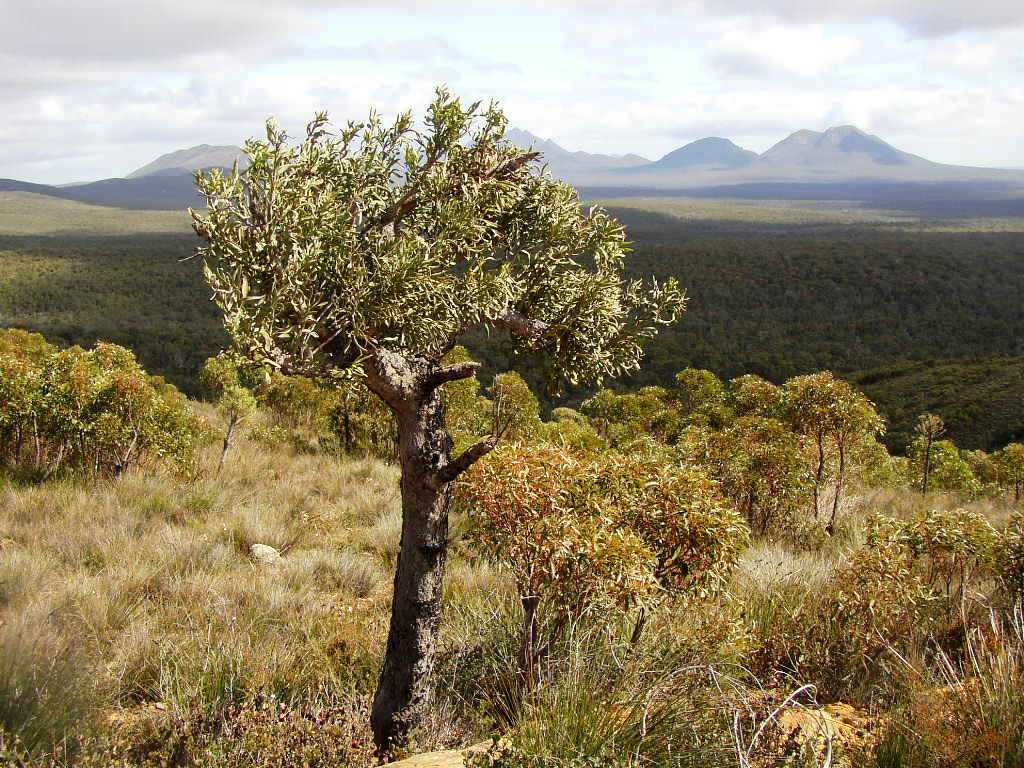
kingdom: Plantae
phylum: Tracheophyta
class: Magnoliopsida
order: Santalales
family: Loranthaceae
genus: Nuytsia
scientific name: Nuytsia floribunda
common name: Western australian christmastree
